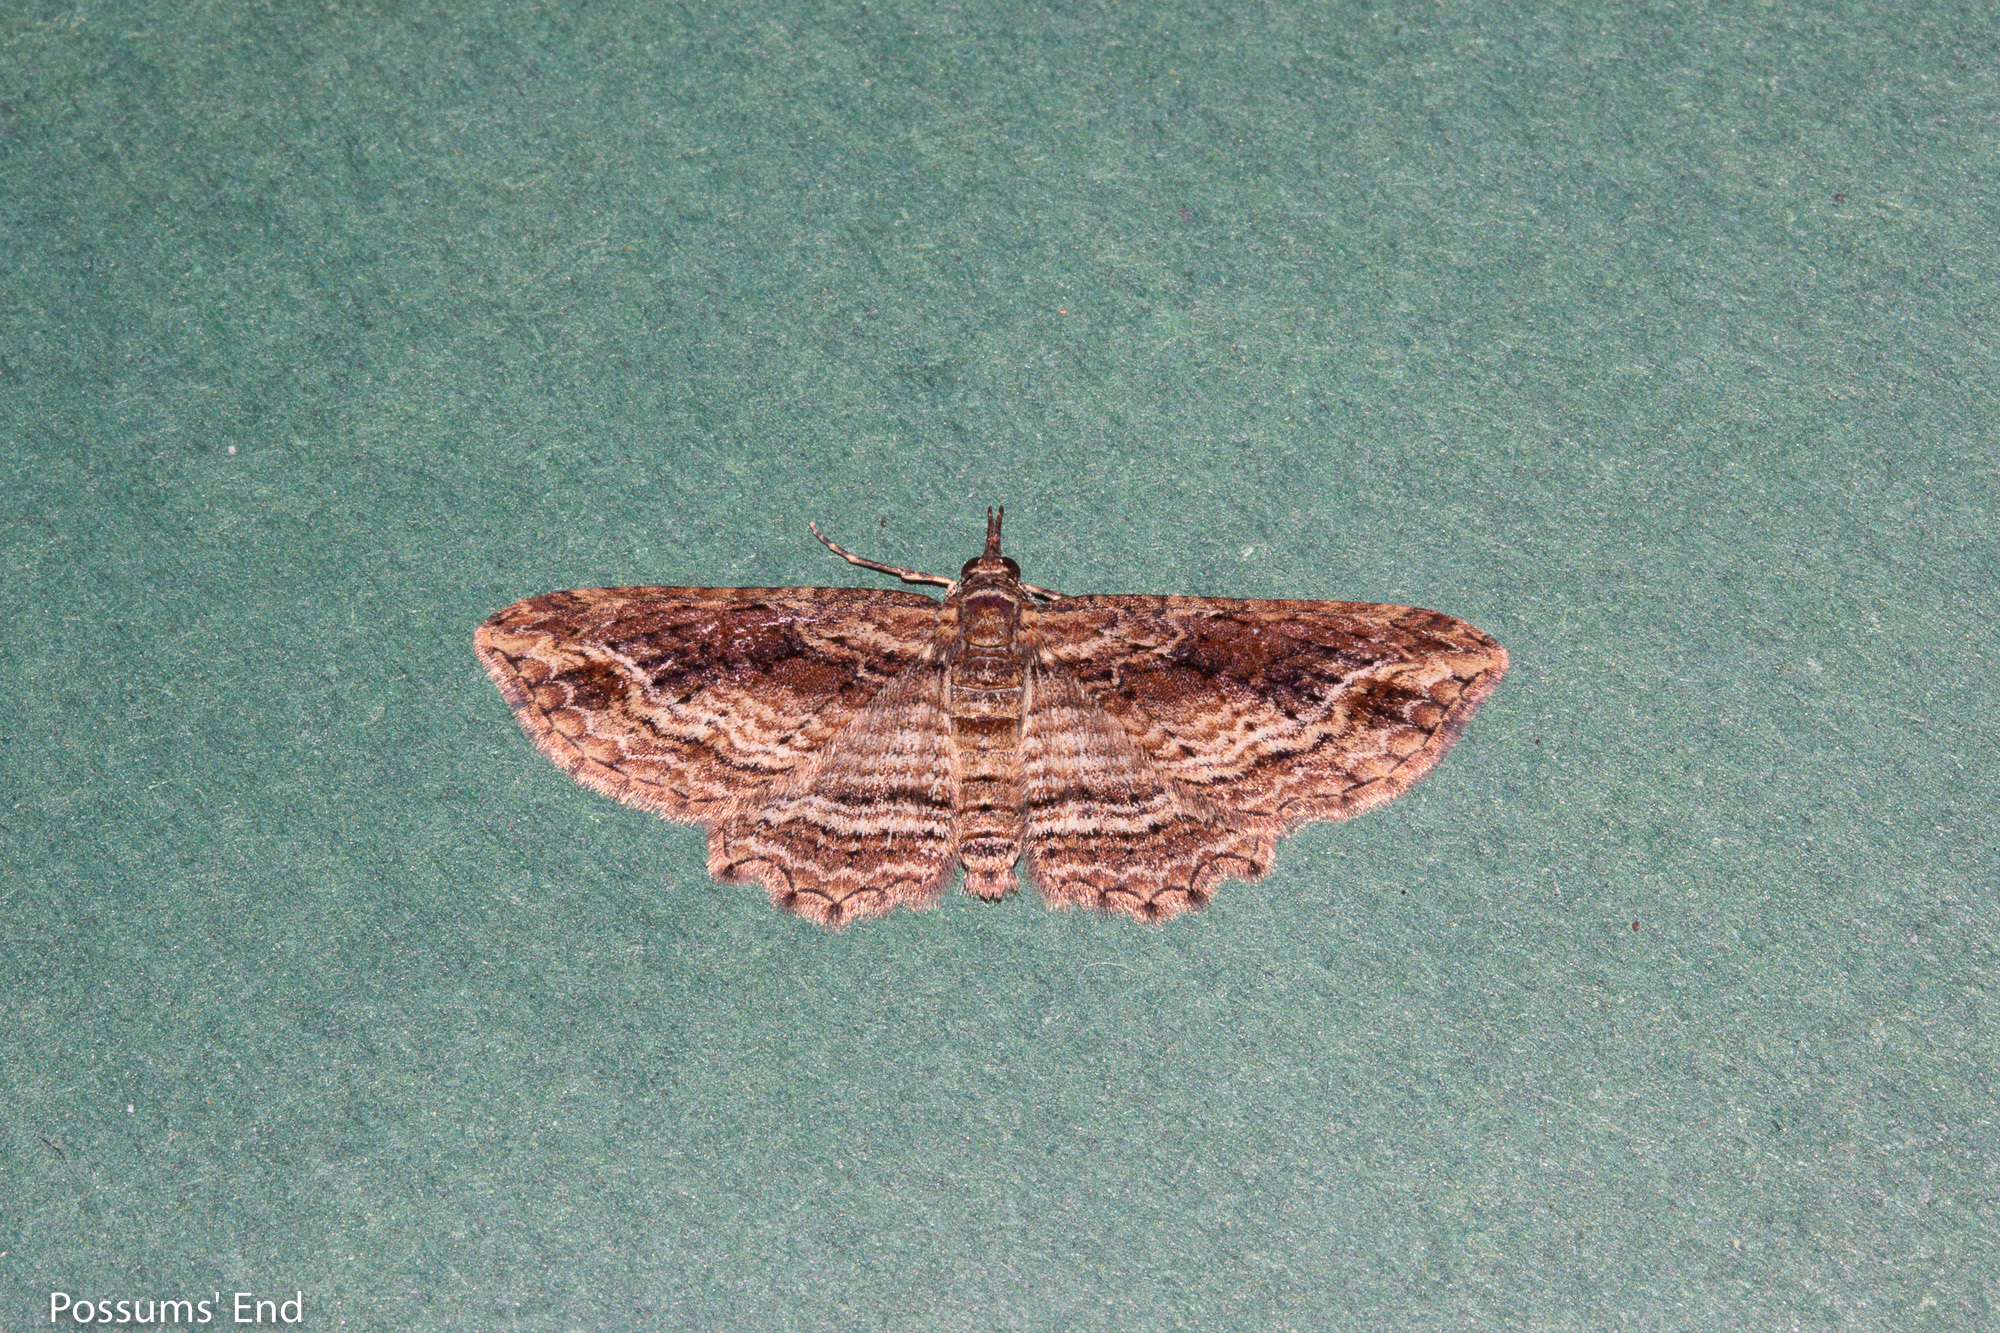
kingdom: Animalia
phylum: Arthropoda
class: Insecta
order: Lepidoptera
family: Geometridae
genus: Chloroclystis
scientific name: Chloroclystis filata
